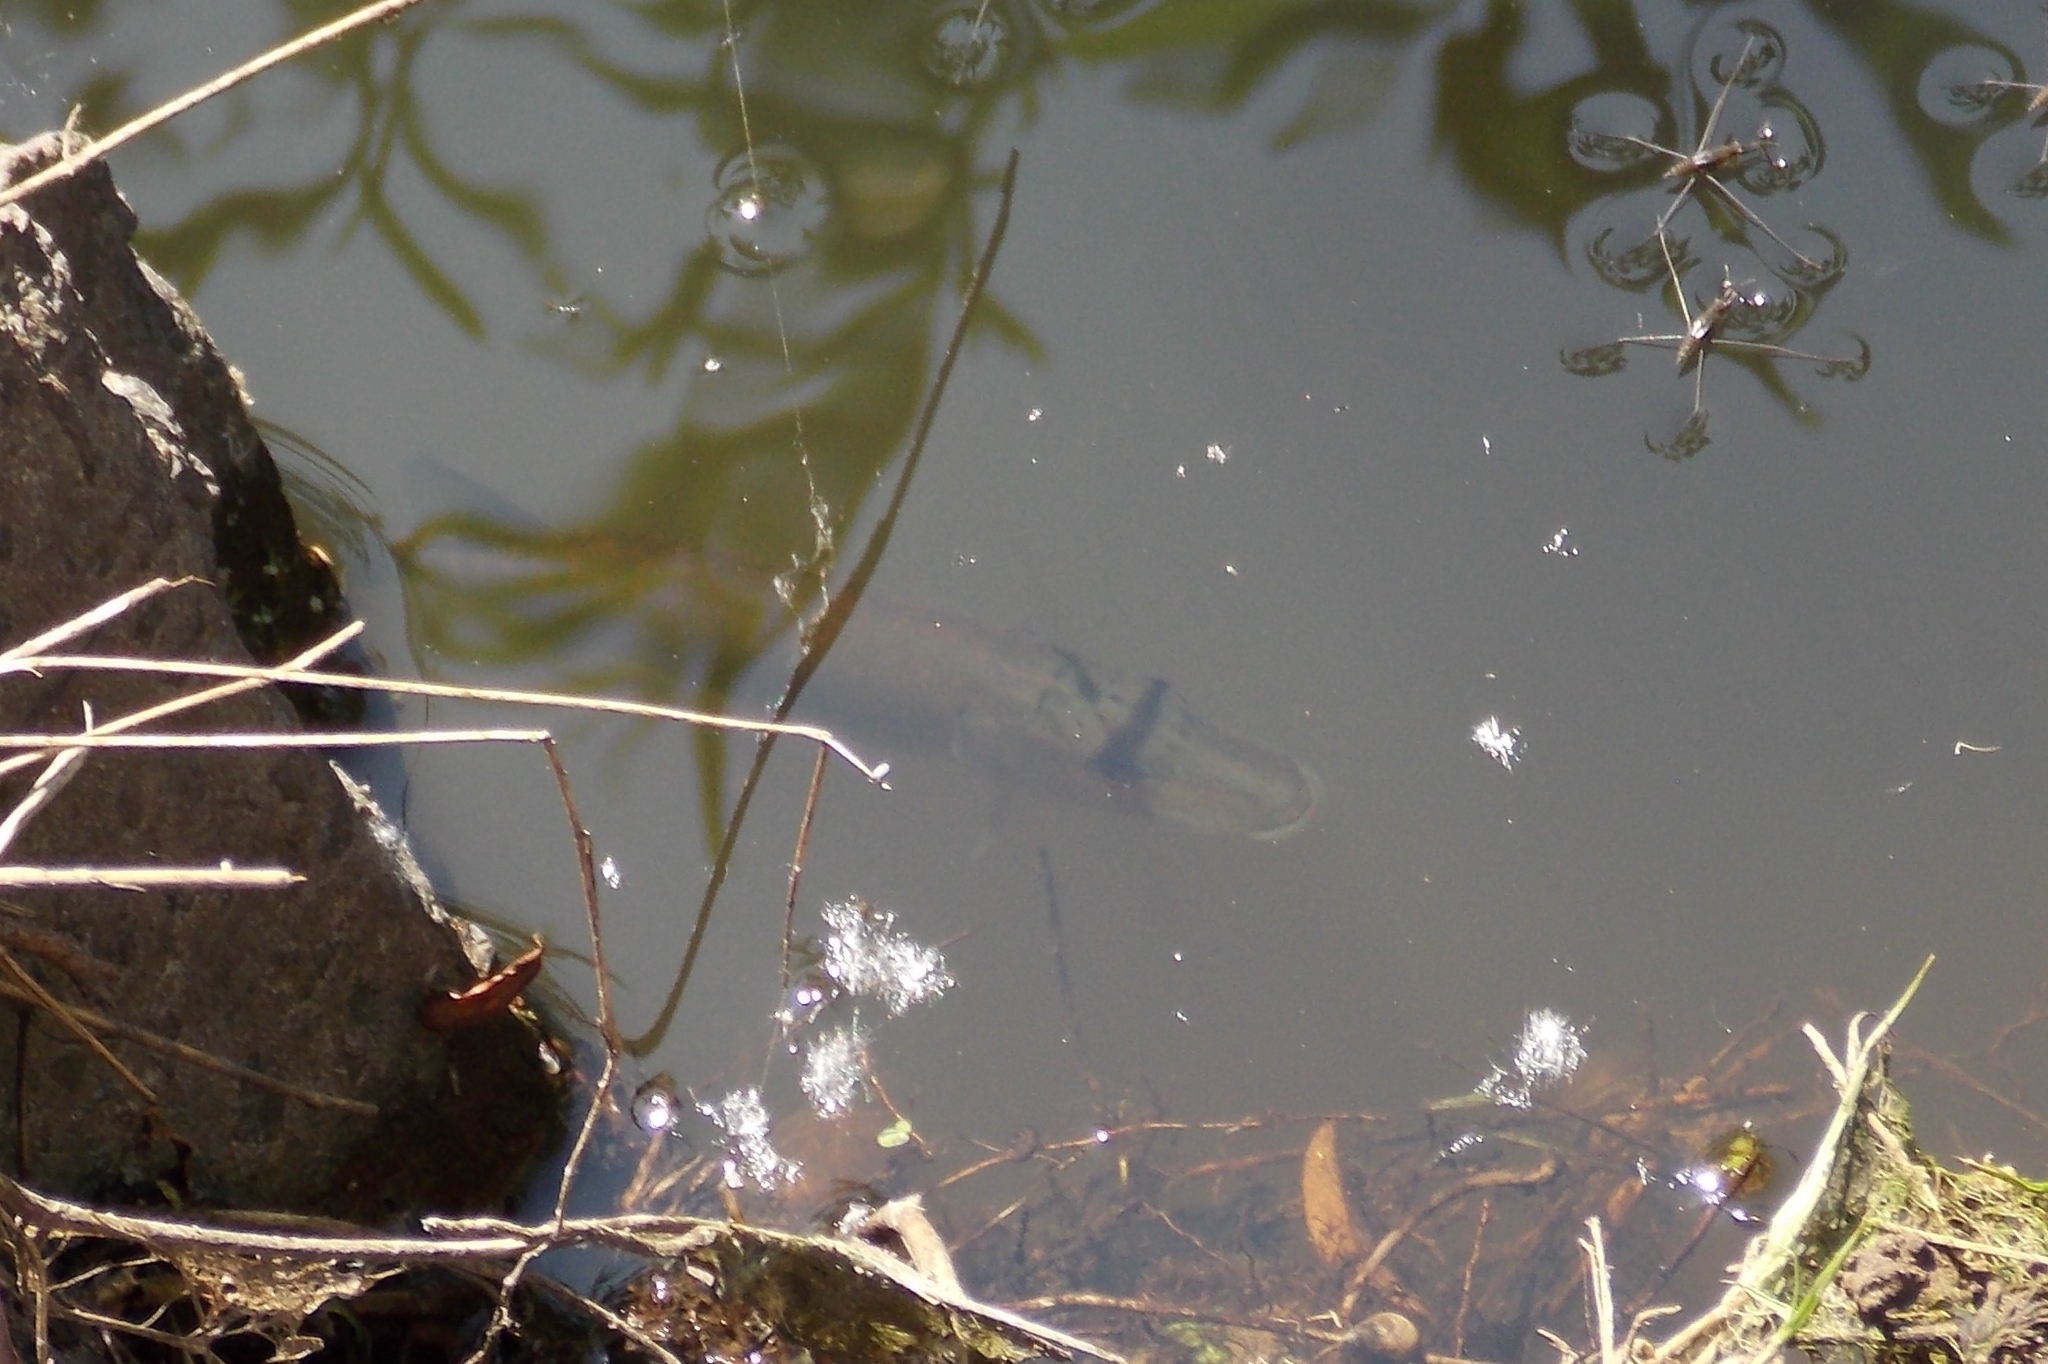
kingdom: Animalia
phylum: Chordata
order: Esociformes
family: Esocidae
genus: Esox
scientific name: Esox lucius
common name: Northern pike
